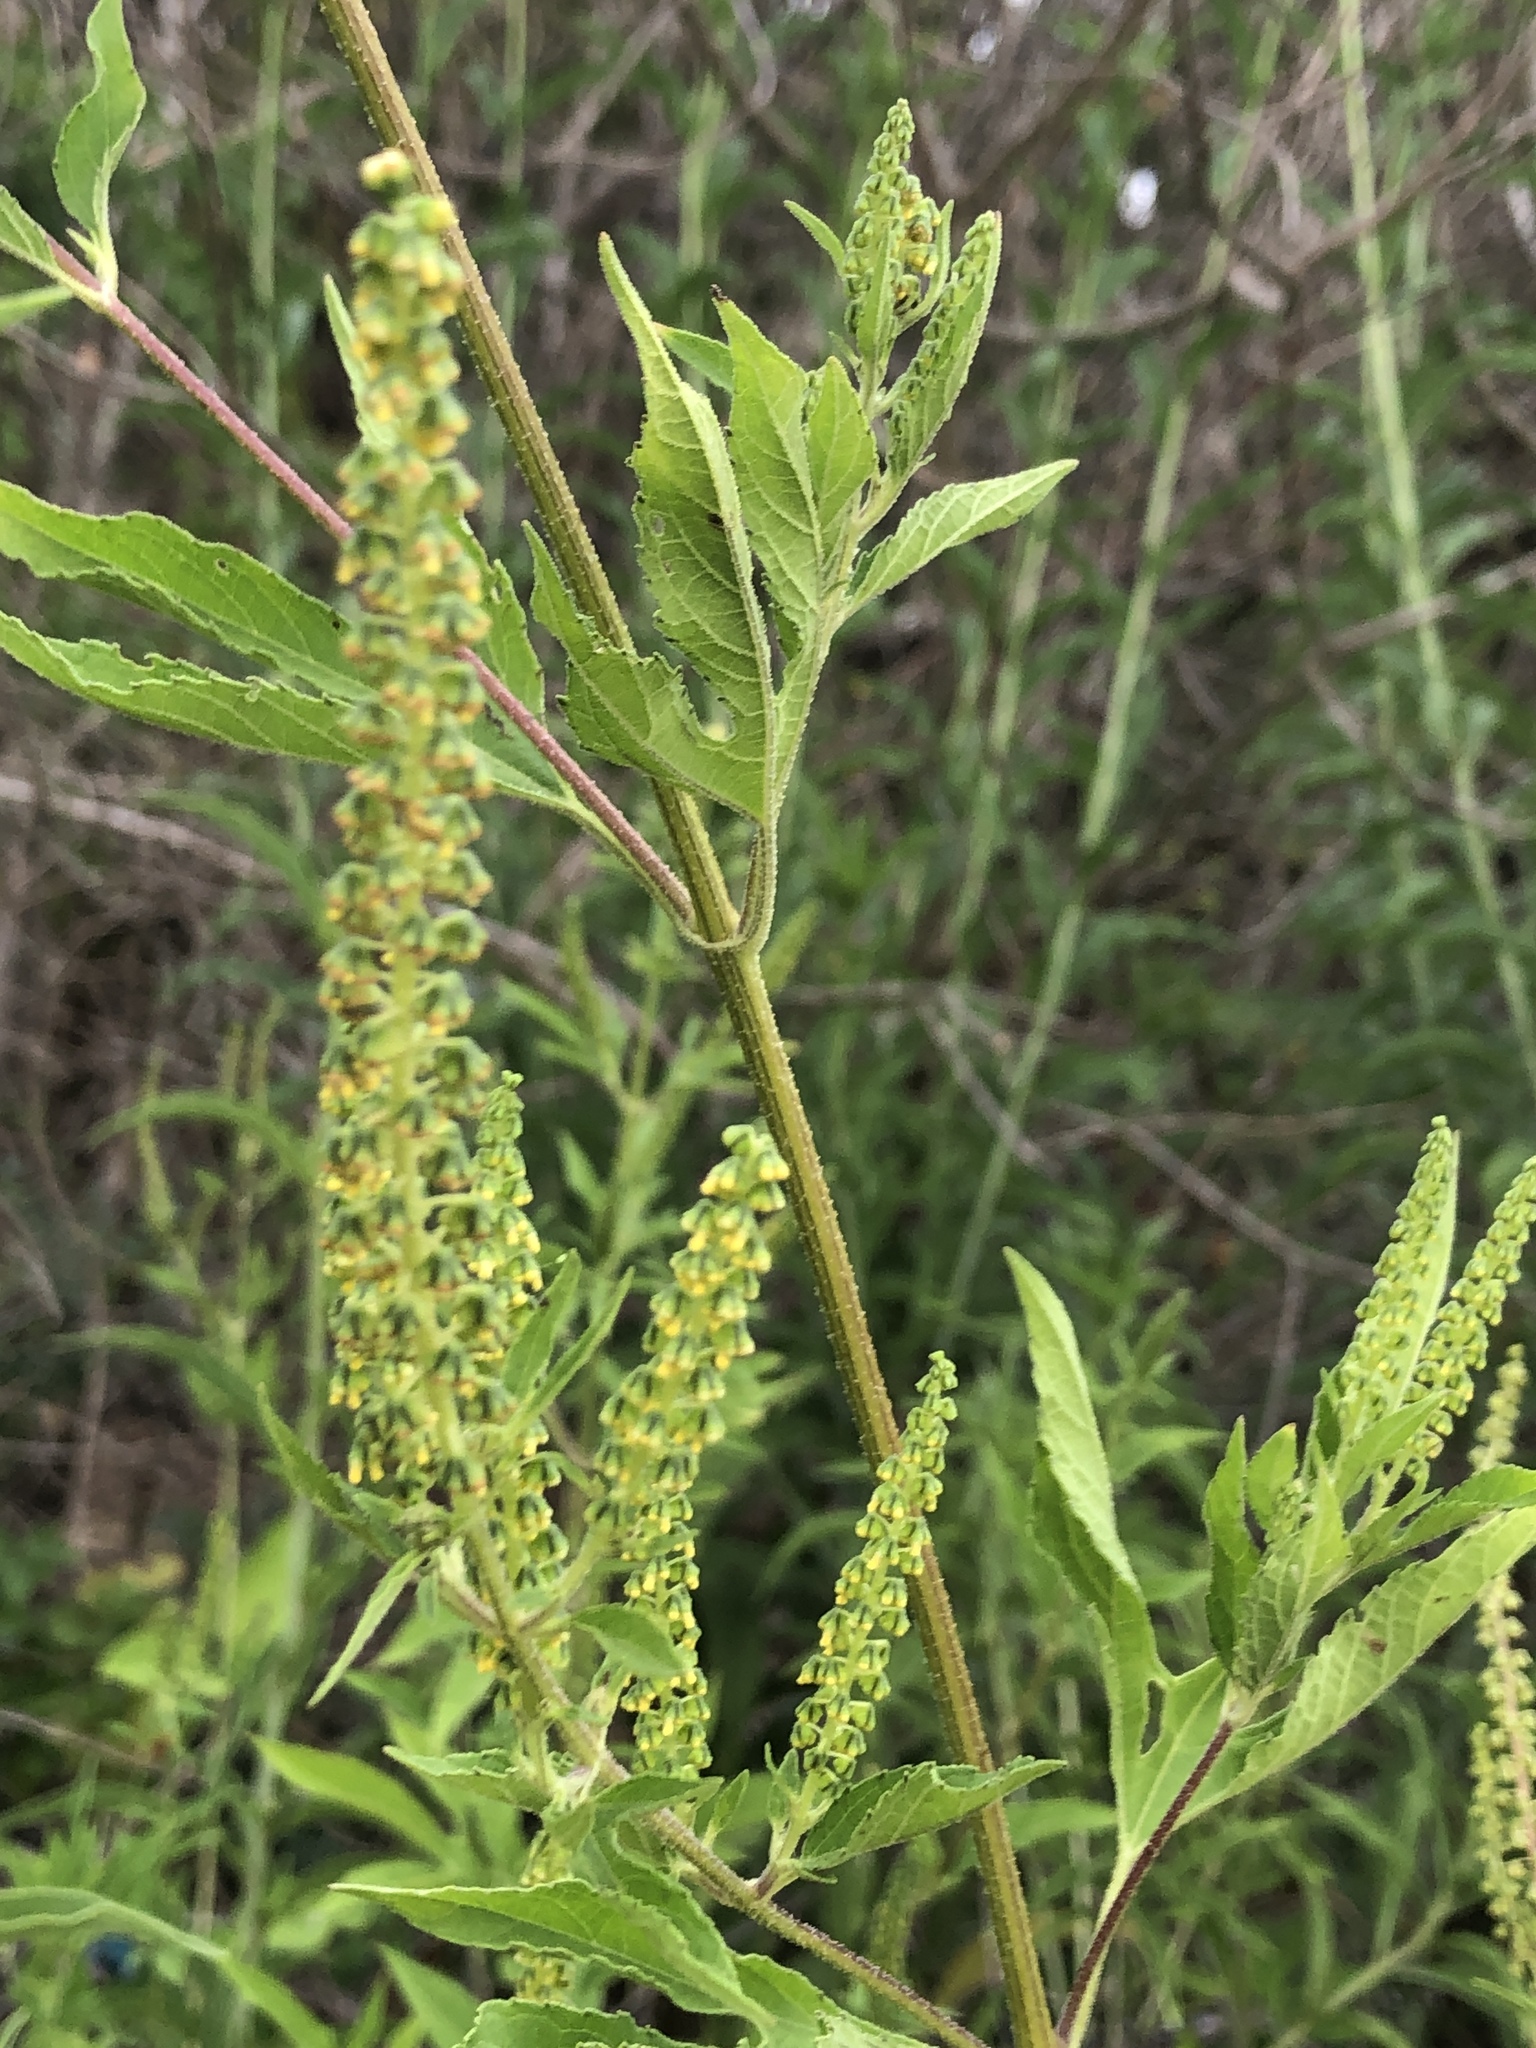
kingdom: Plantae
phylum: Tracheophyta
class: Magnoliopsida
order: Asterales
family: Asteraceae
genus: Ambrosia
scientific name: Ambrosia trifida
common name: Giant ragweed
